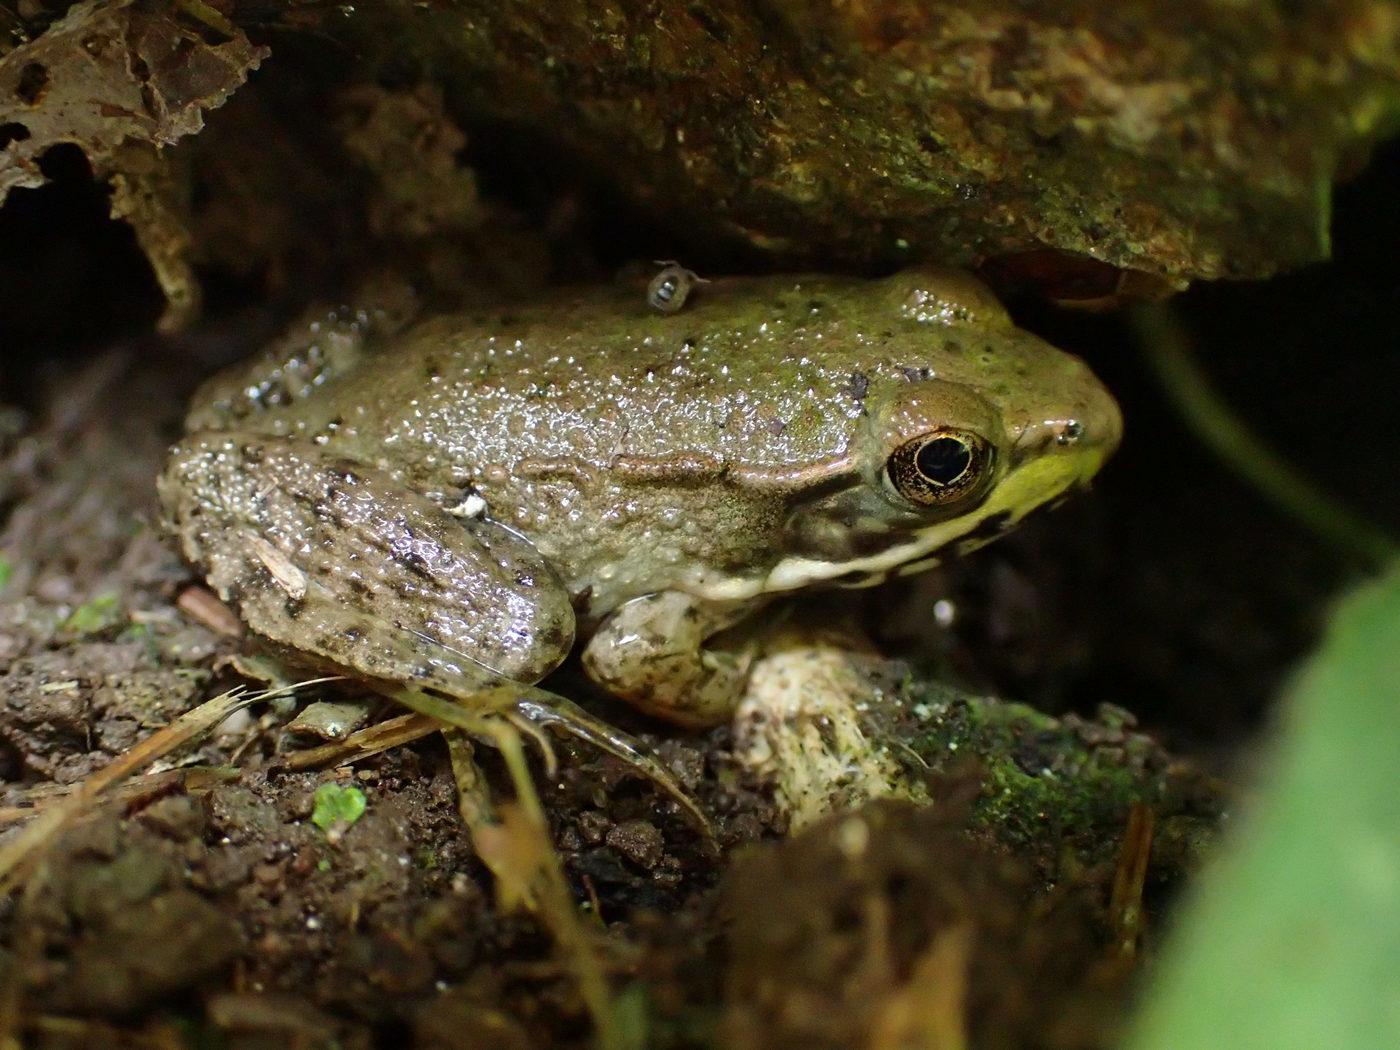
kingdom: Animalia
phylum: Chordata
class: Amphibia
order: Anura
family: Ranidae
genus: Lithobates
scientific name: Lithobates clamitans
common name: Green frog
